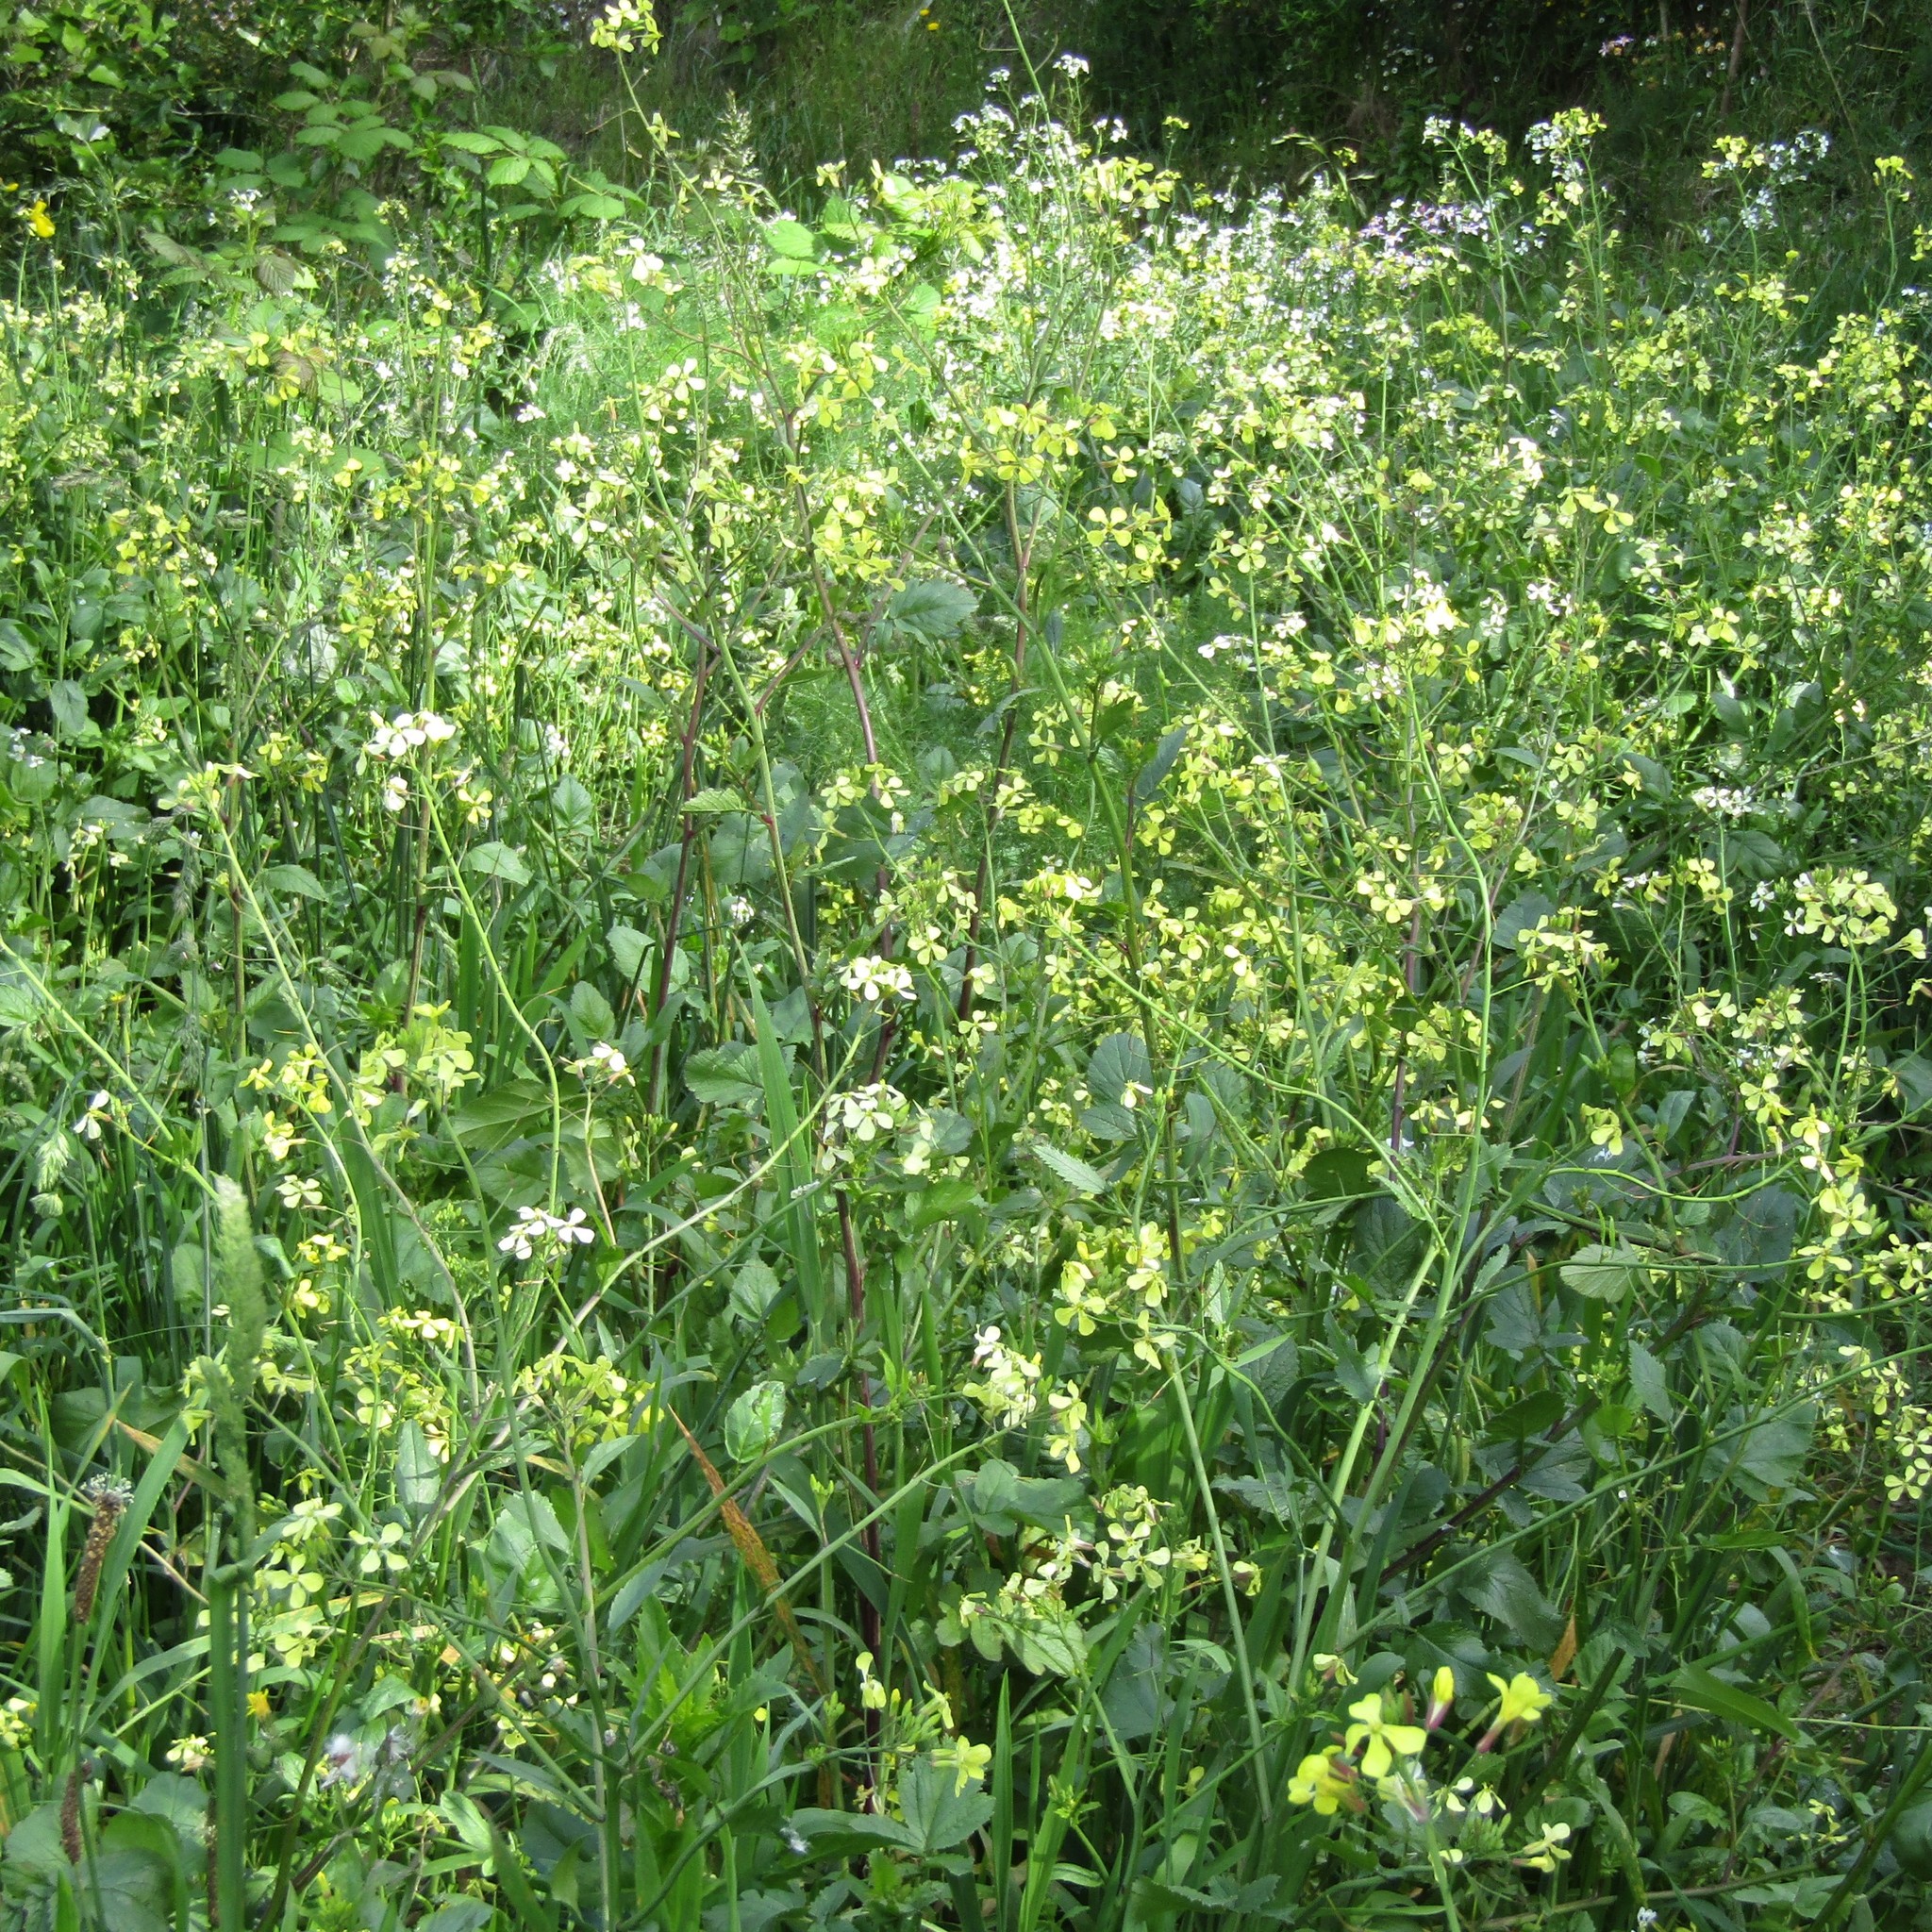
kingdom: Plantae
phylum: Tracheophyta
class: Magnoliopsida
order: Brassicales
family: Brassicaceae
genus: Raphanus
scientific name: Raphanus raphanistrum
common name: Wild radish
